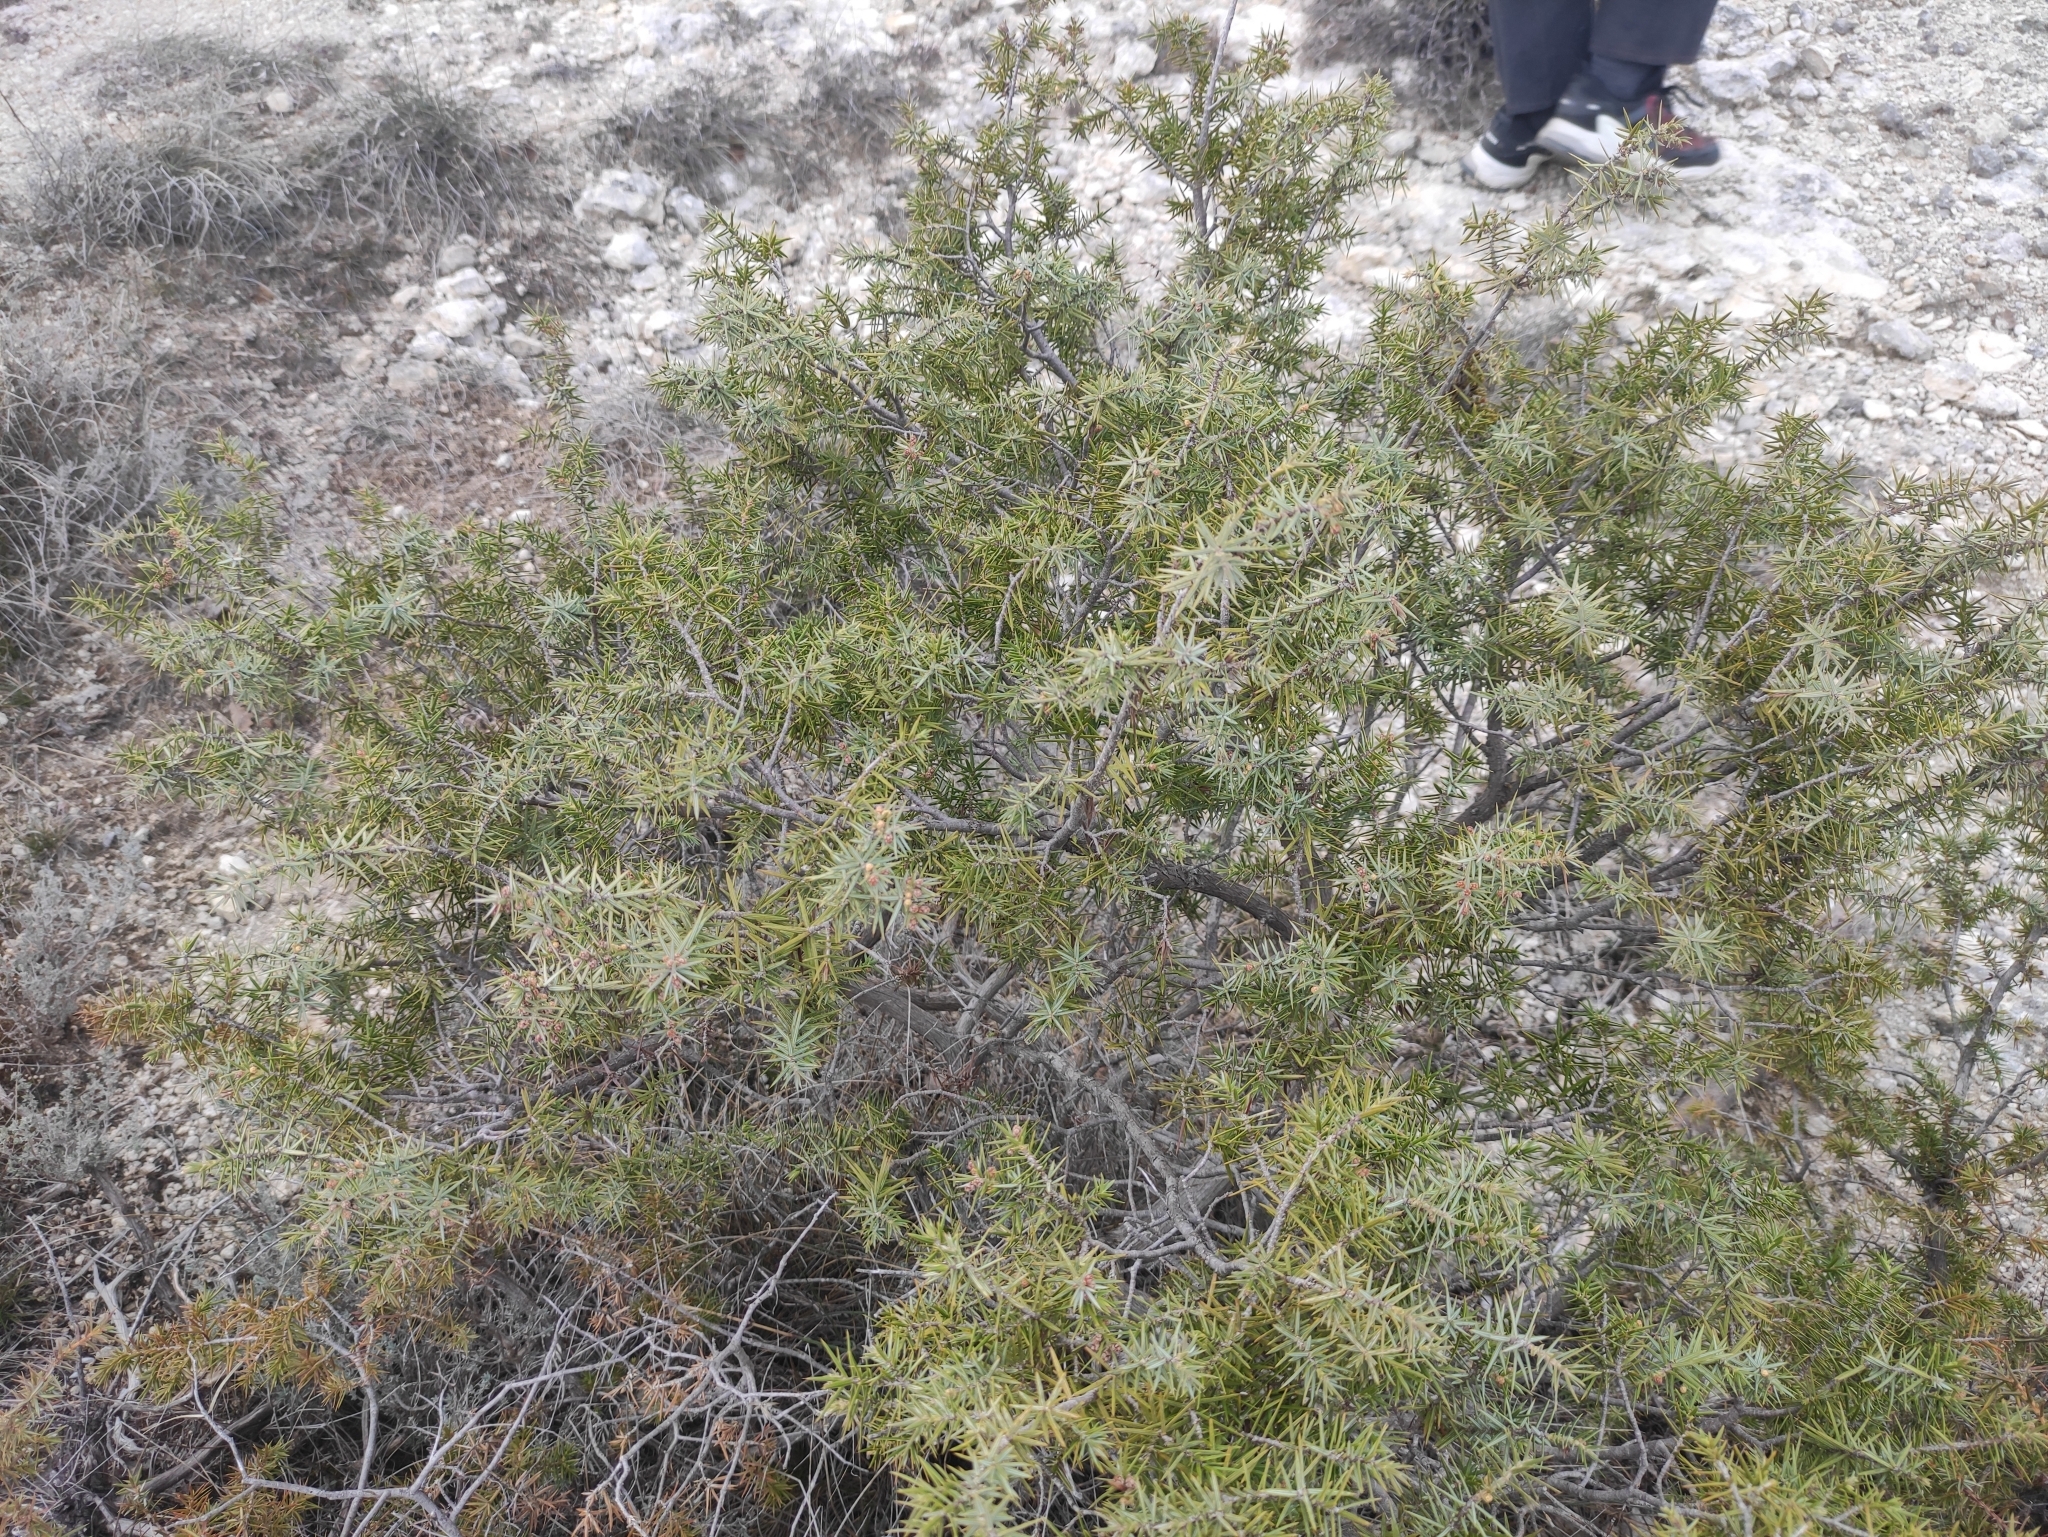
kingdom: Plantae
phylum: Tracheophyta
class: Pinopsida
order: Pinales
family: Cupressaceae
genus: Juniperus
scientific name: Juniperus oxycedrus
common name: Prickly juniper
